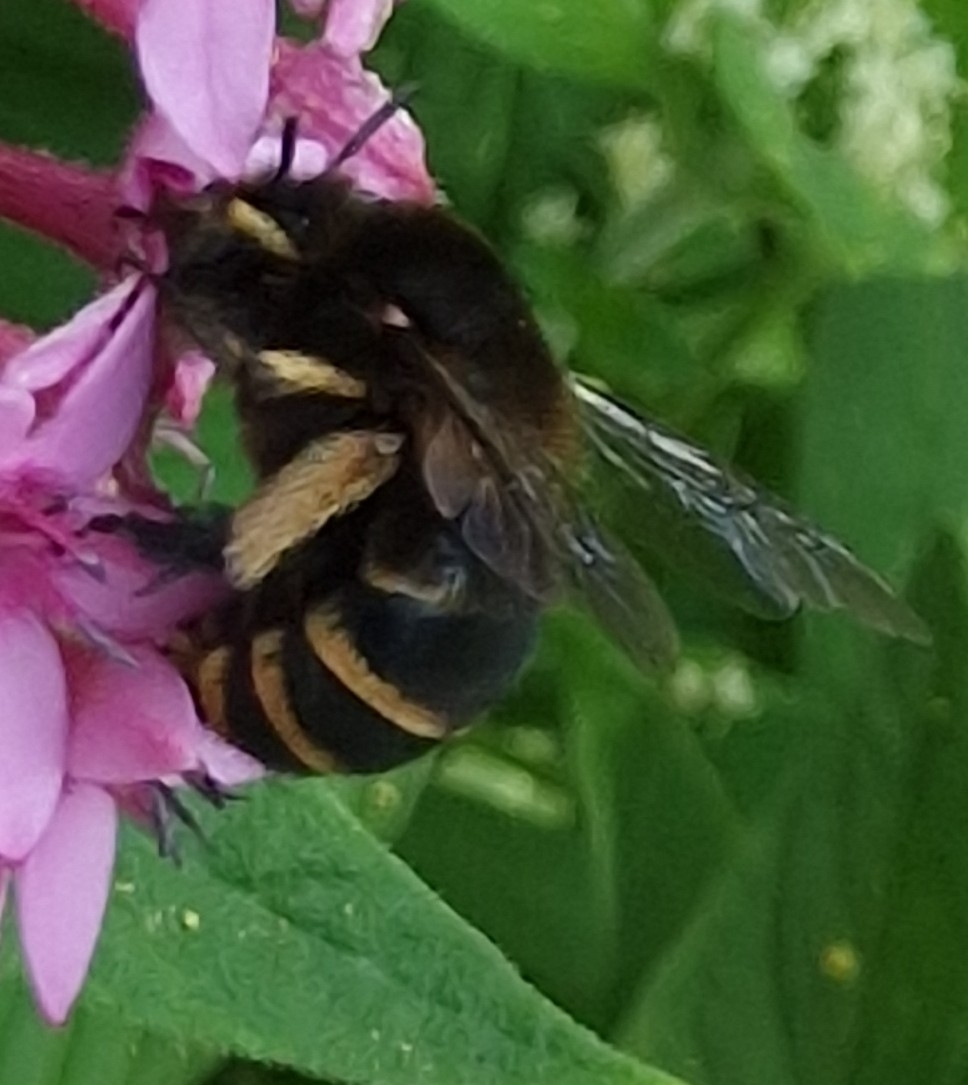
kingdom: Animalia
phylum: Arthropoda
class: Insecta
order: Hymenoptera
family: Apidae
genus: Amegilla
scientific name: Amegilla quadrifasciata
